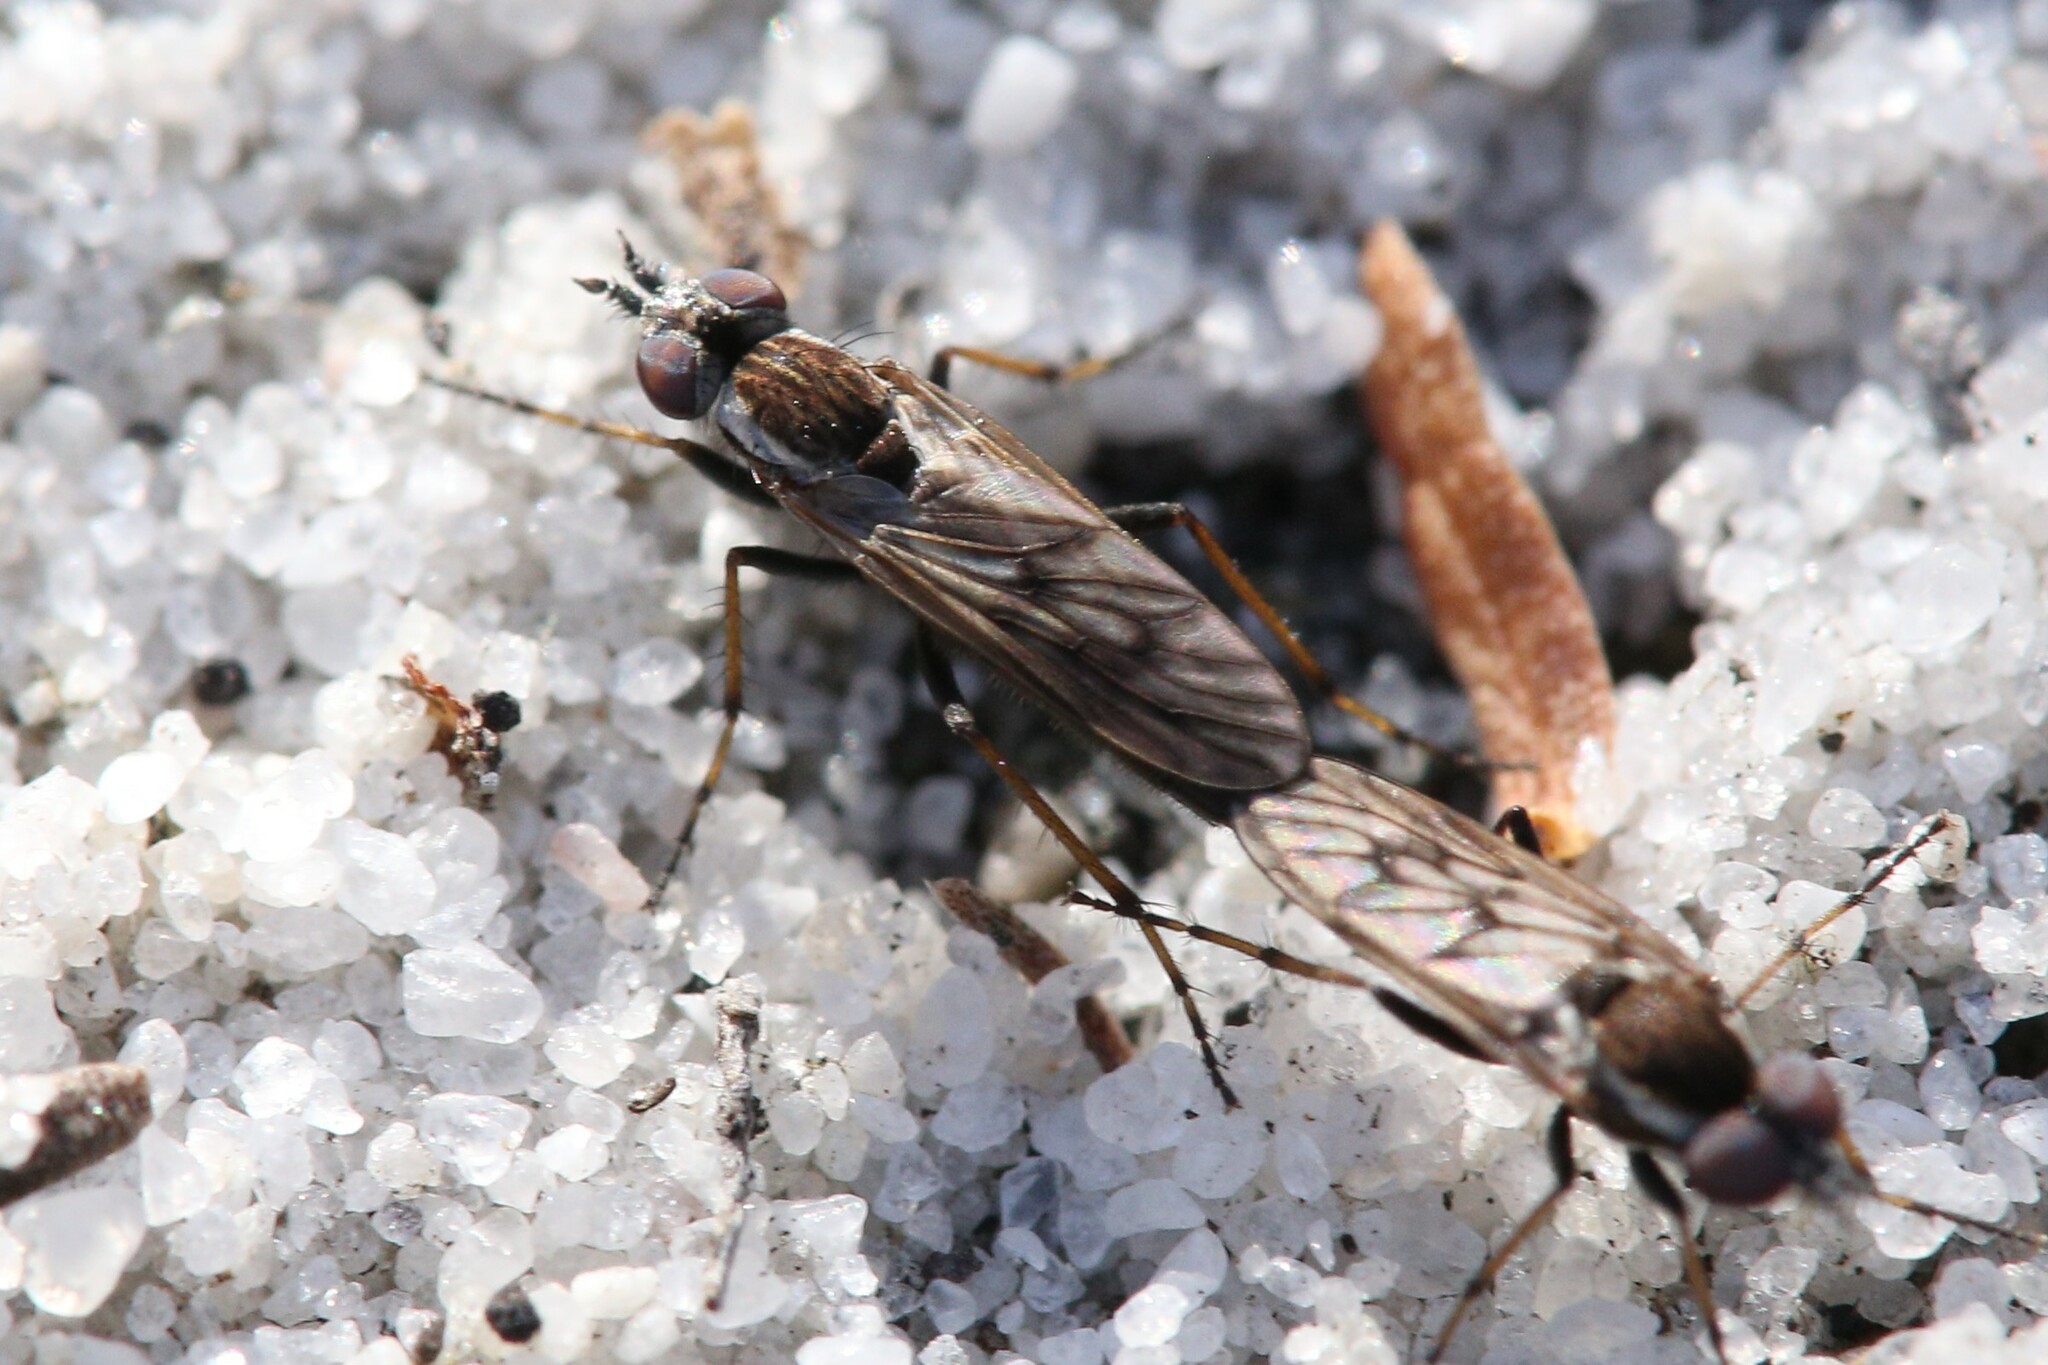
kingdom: Animalia
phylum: Arthropoda
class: Insecta
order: Diptera
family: Therevidae
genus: Parapsilocephala
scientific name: Parapsilocephala
